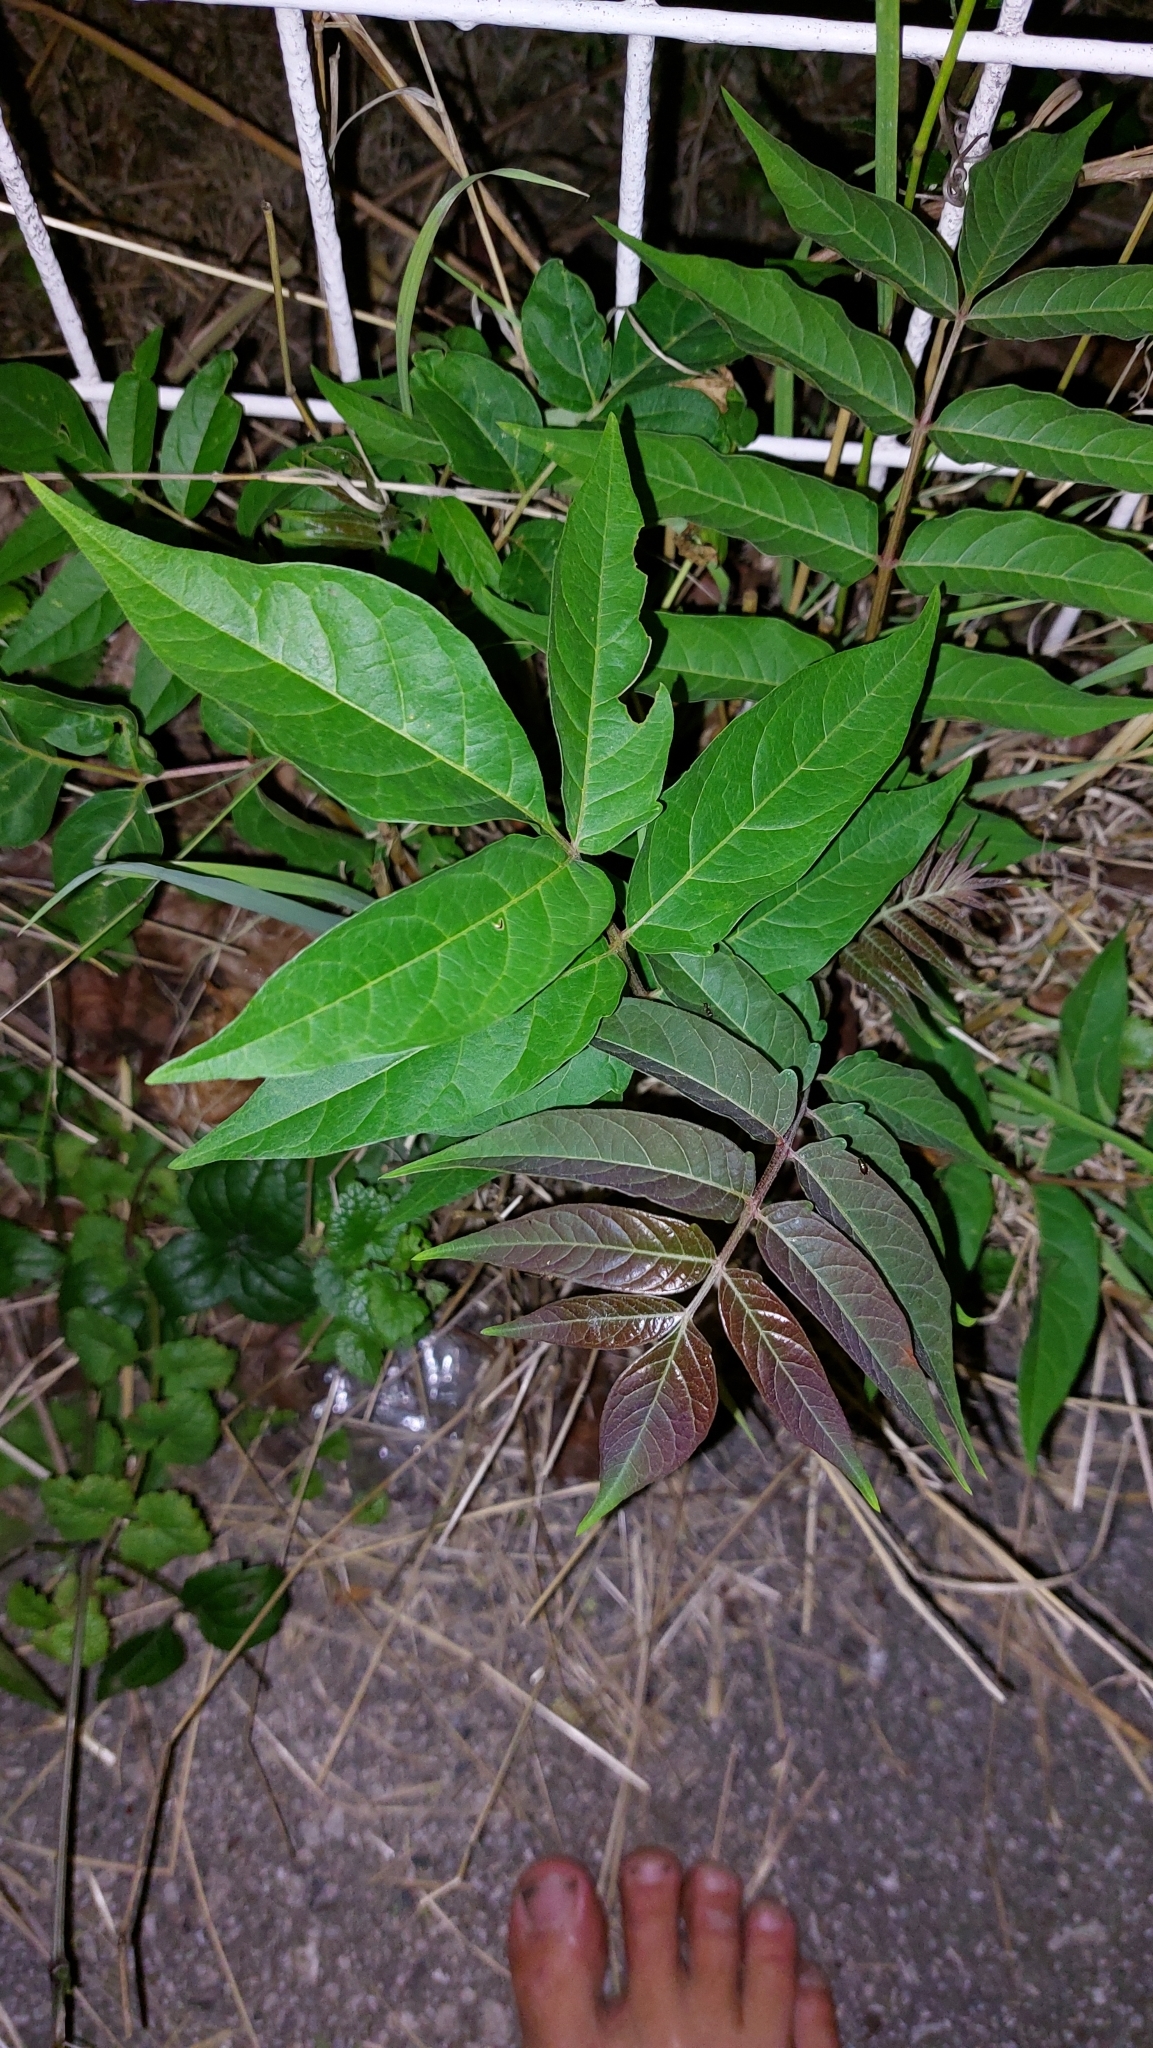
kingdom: Plantae
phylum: Tracheophyta
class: Magnoliopsida
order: Sapindales
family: Simaroubaceae
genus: Ailanthus
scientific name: Ailanthus altissima
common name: Tree-of-heaven
